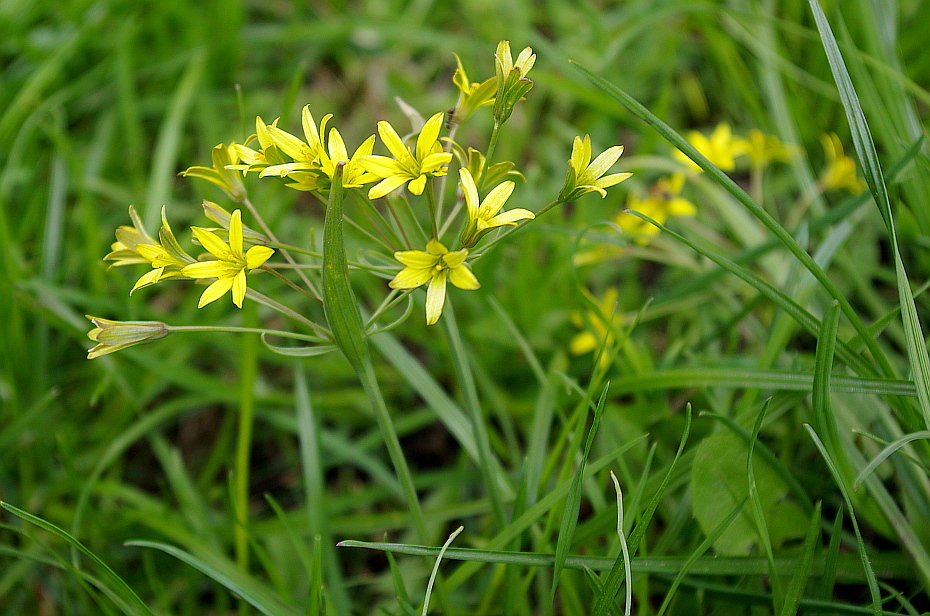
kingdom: Plantae
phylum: Tracheophyta
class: Liliopsida
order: Liliales
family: Liliaceae
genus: Gagea
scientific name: Gagea fragifera
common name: Lily
